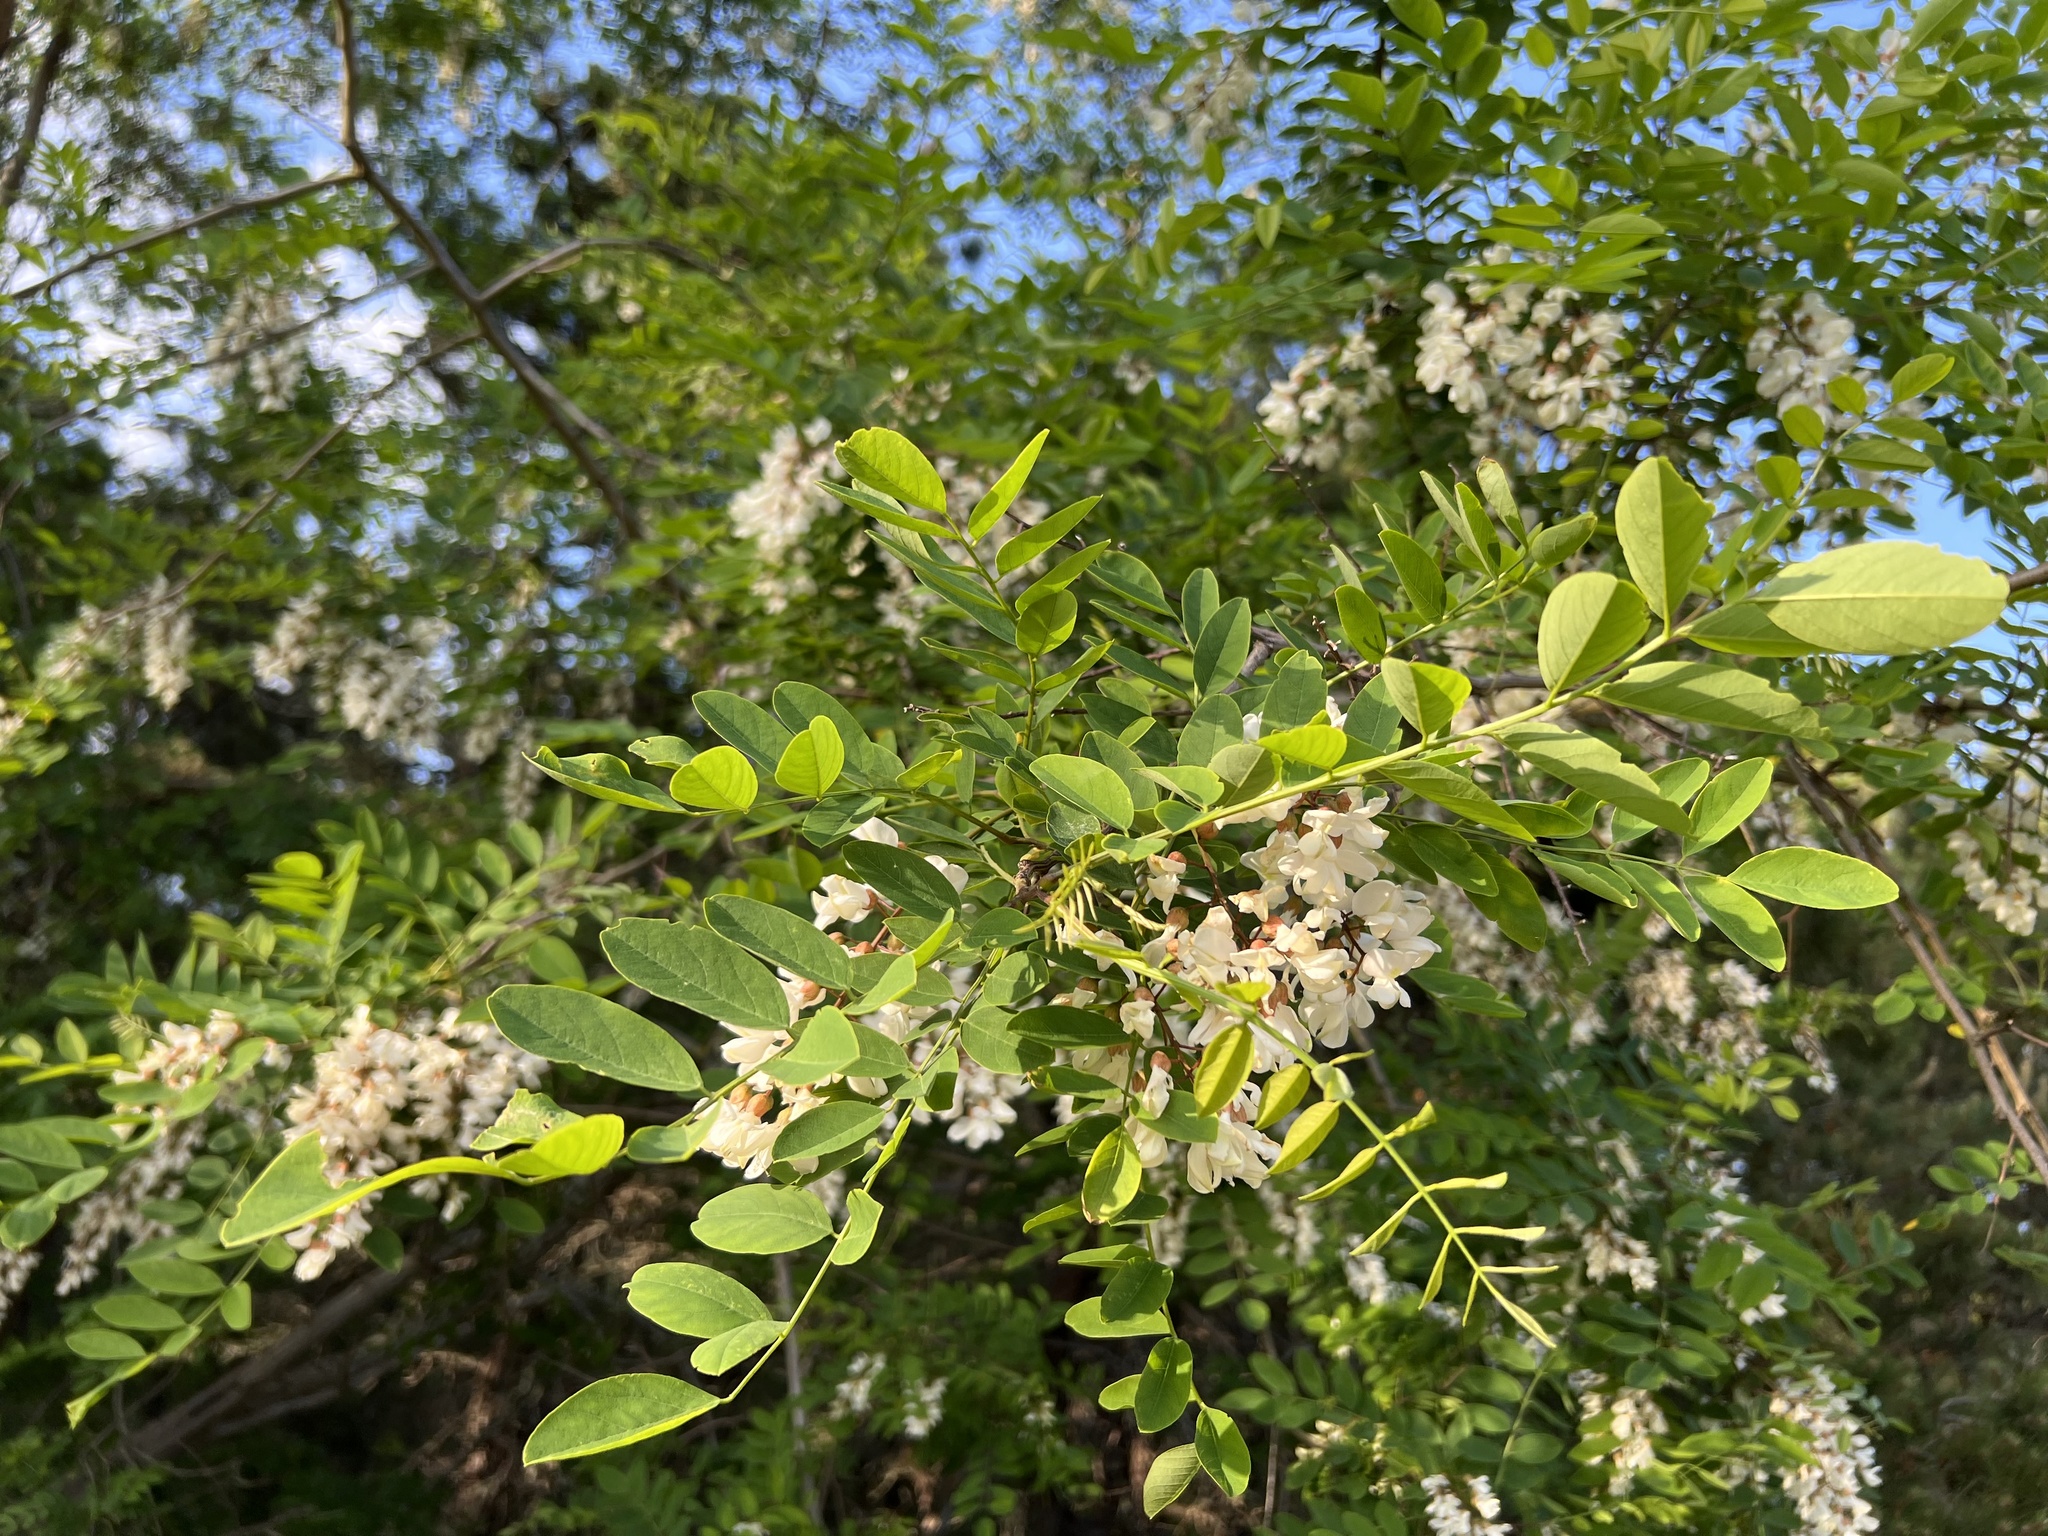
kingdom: Plantae
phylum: Tracheophyta
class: Magnoliopsida
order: Fabales
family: Fabaceae
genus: Robinia
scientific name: Robinia pseudoacacia
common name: Black locust
